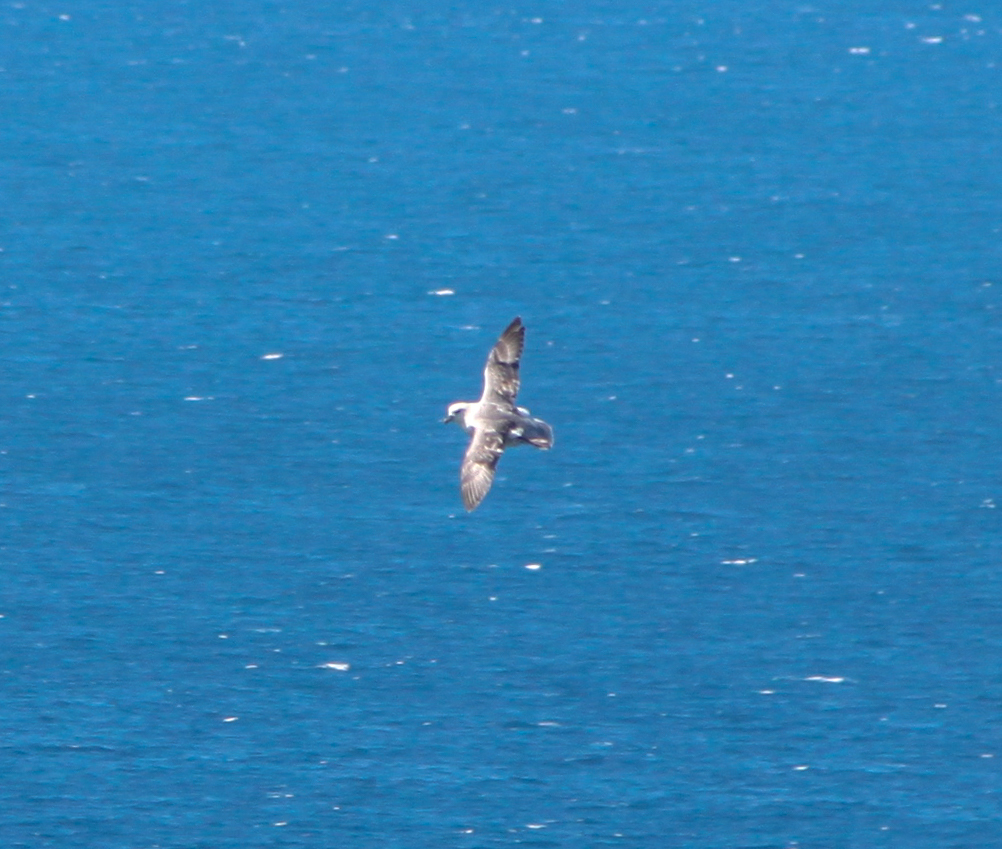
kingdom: Animalia
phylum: Chordata
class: Aves
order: Procellariiformes
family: Procellariidae
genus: Fulmarus
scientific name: Fulmarus glacialis
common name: Northern fulmar
